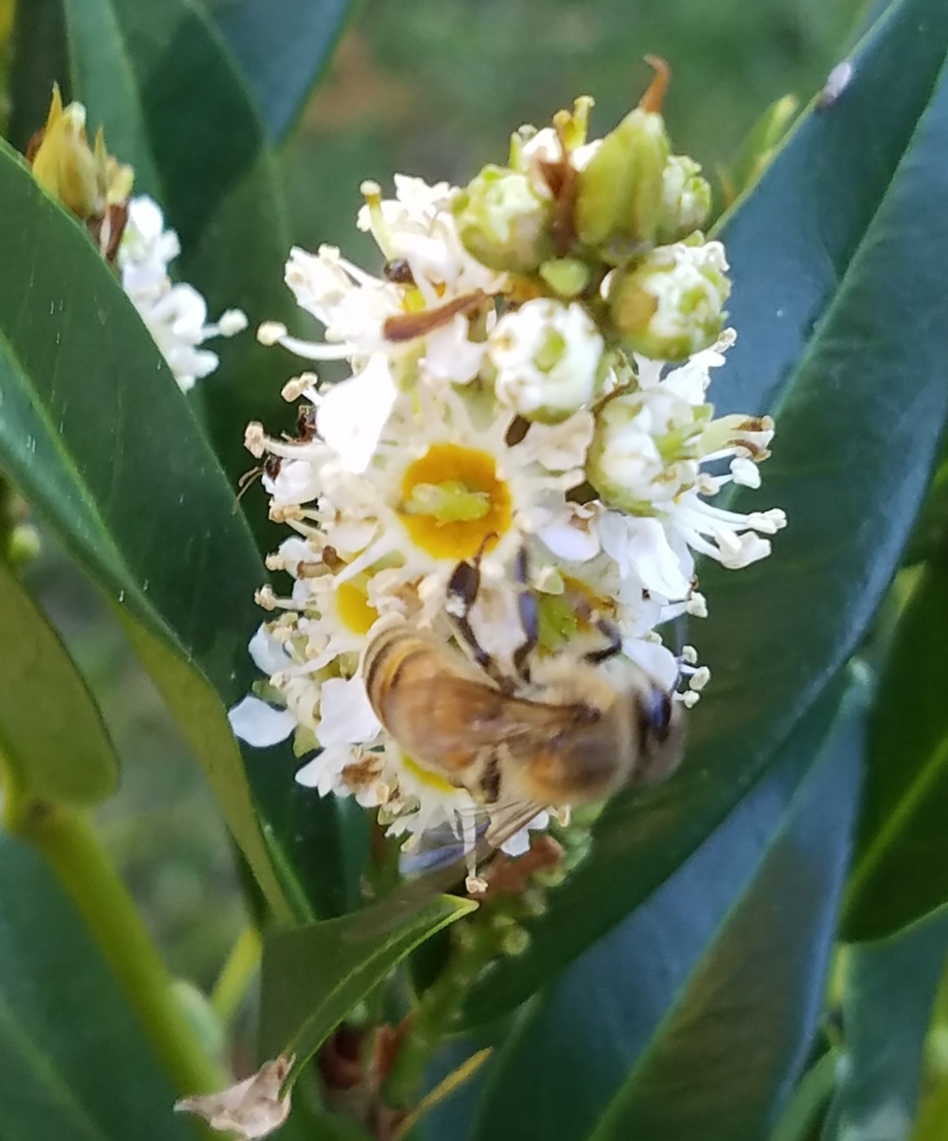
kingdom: Animalia
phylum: Arthropoda
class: Insecta
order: Hymenoptera
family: Apidae
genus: Apis
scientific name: Apis mellifera
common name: Honey bee
